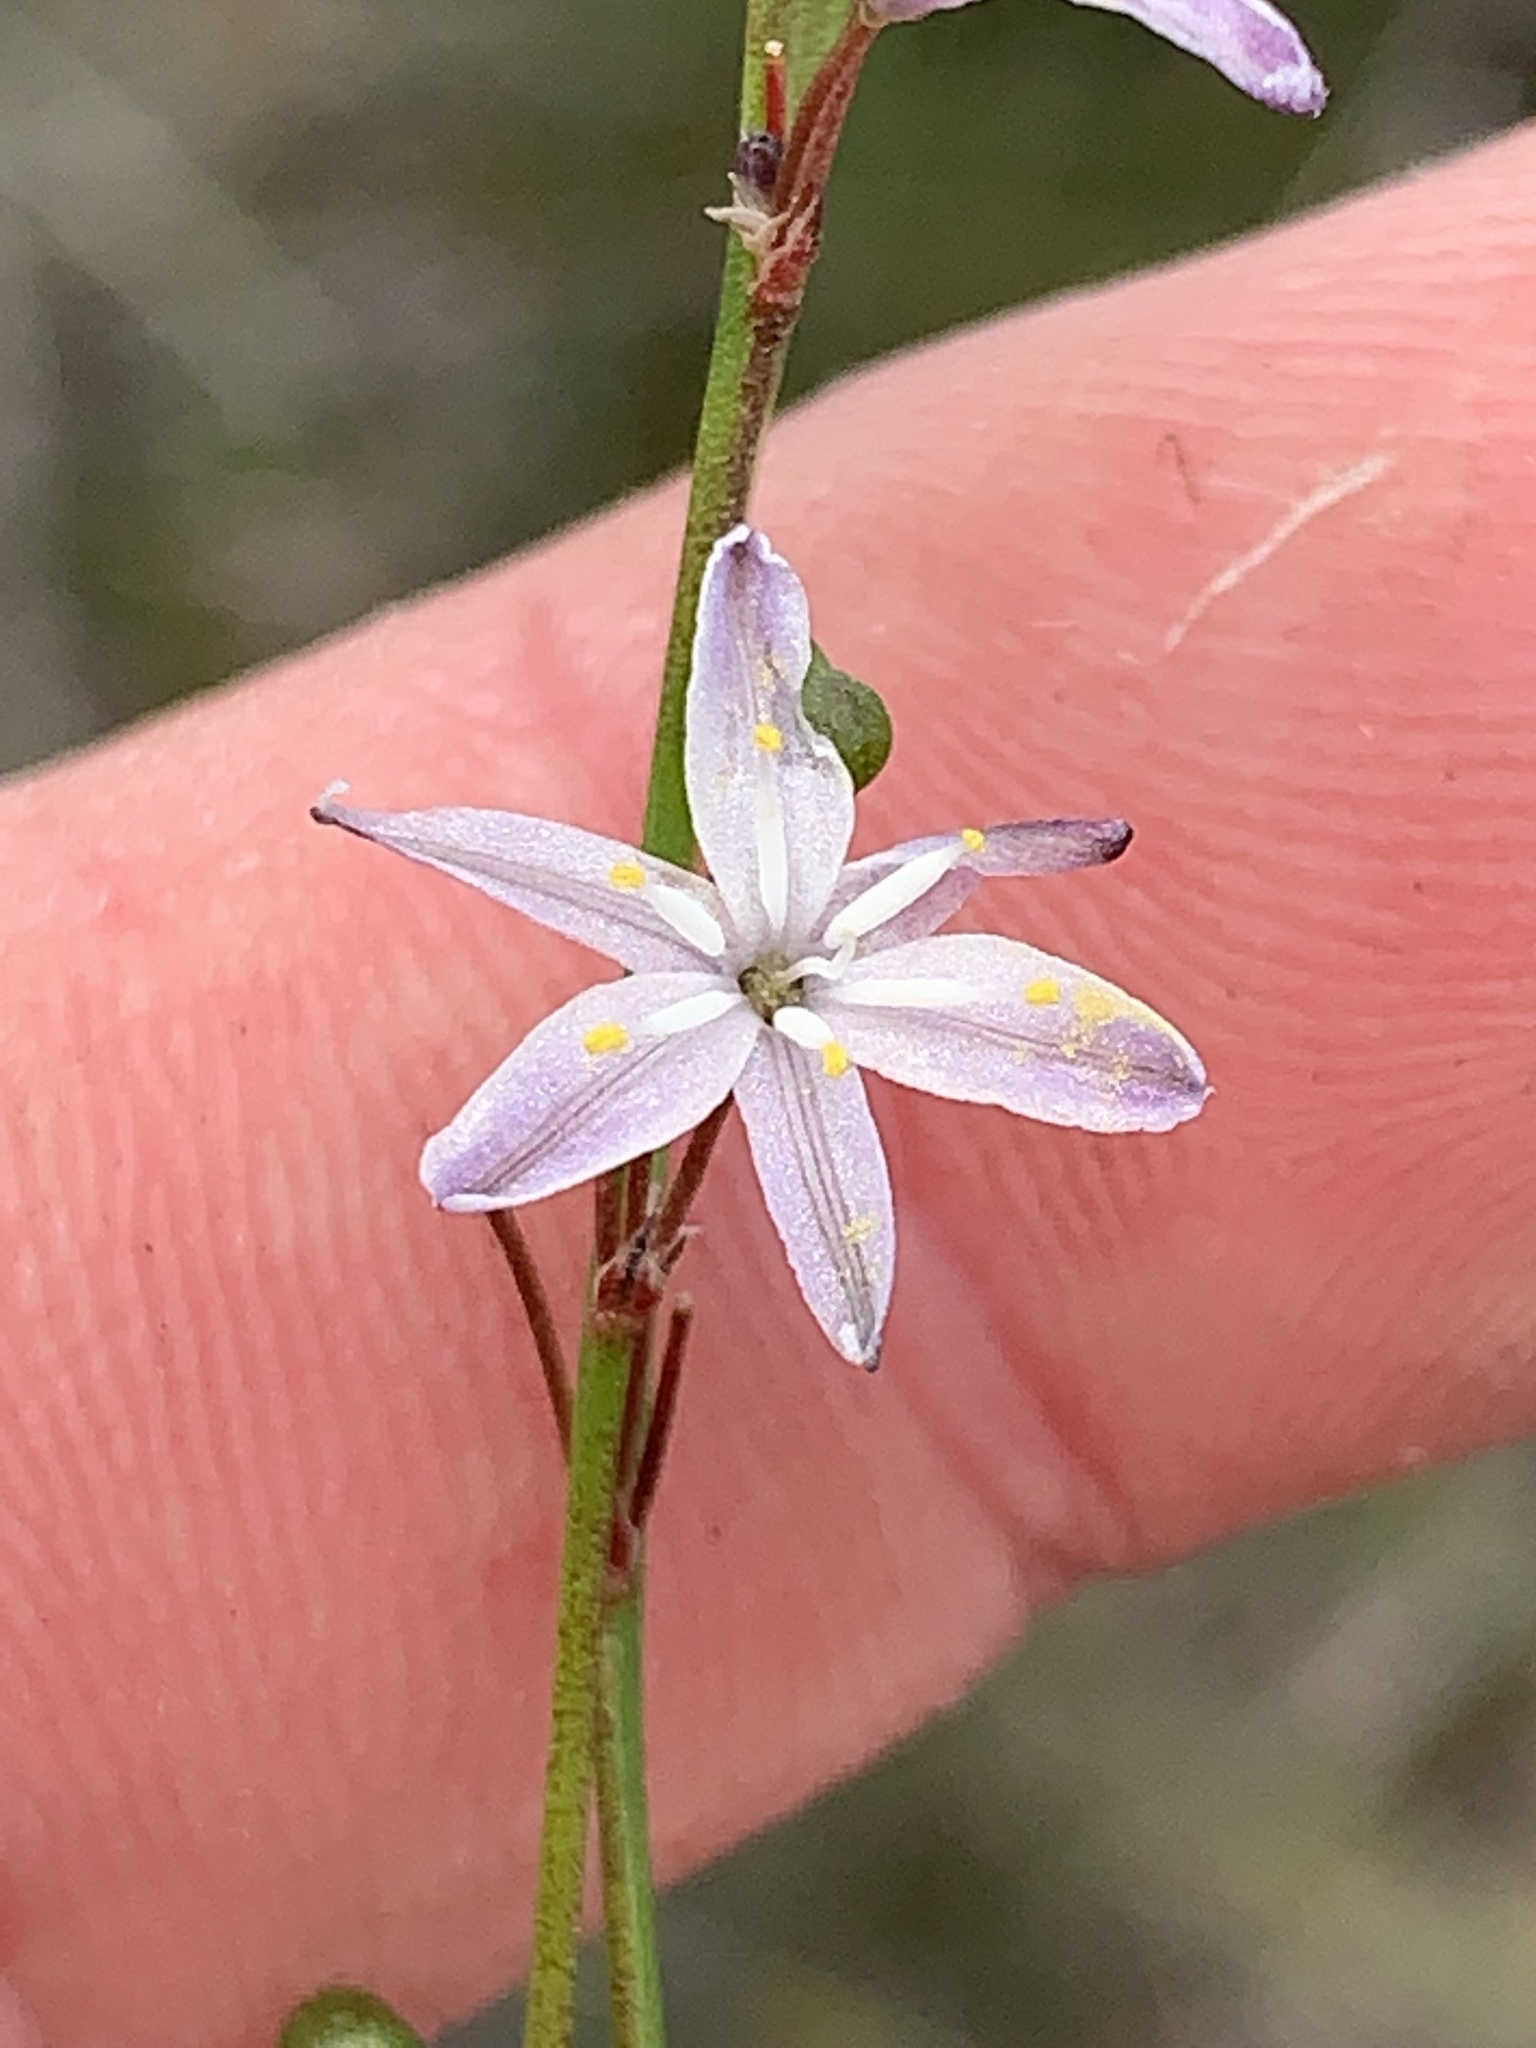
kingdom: Plantae
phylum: Tracheophyta
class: Liliopsida
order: Asparagales
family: Asphodelaceae
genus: Caesia
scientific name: Caesia parviflora
